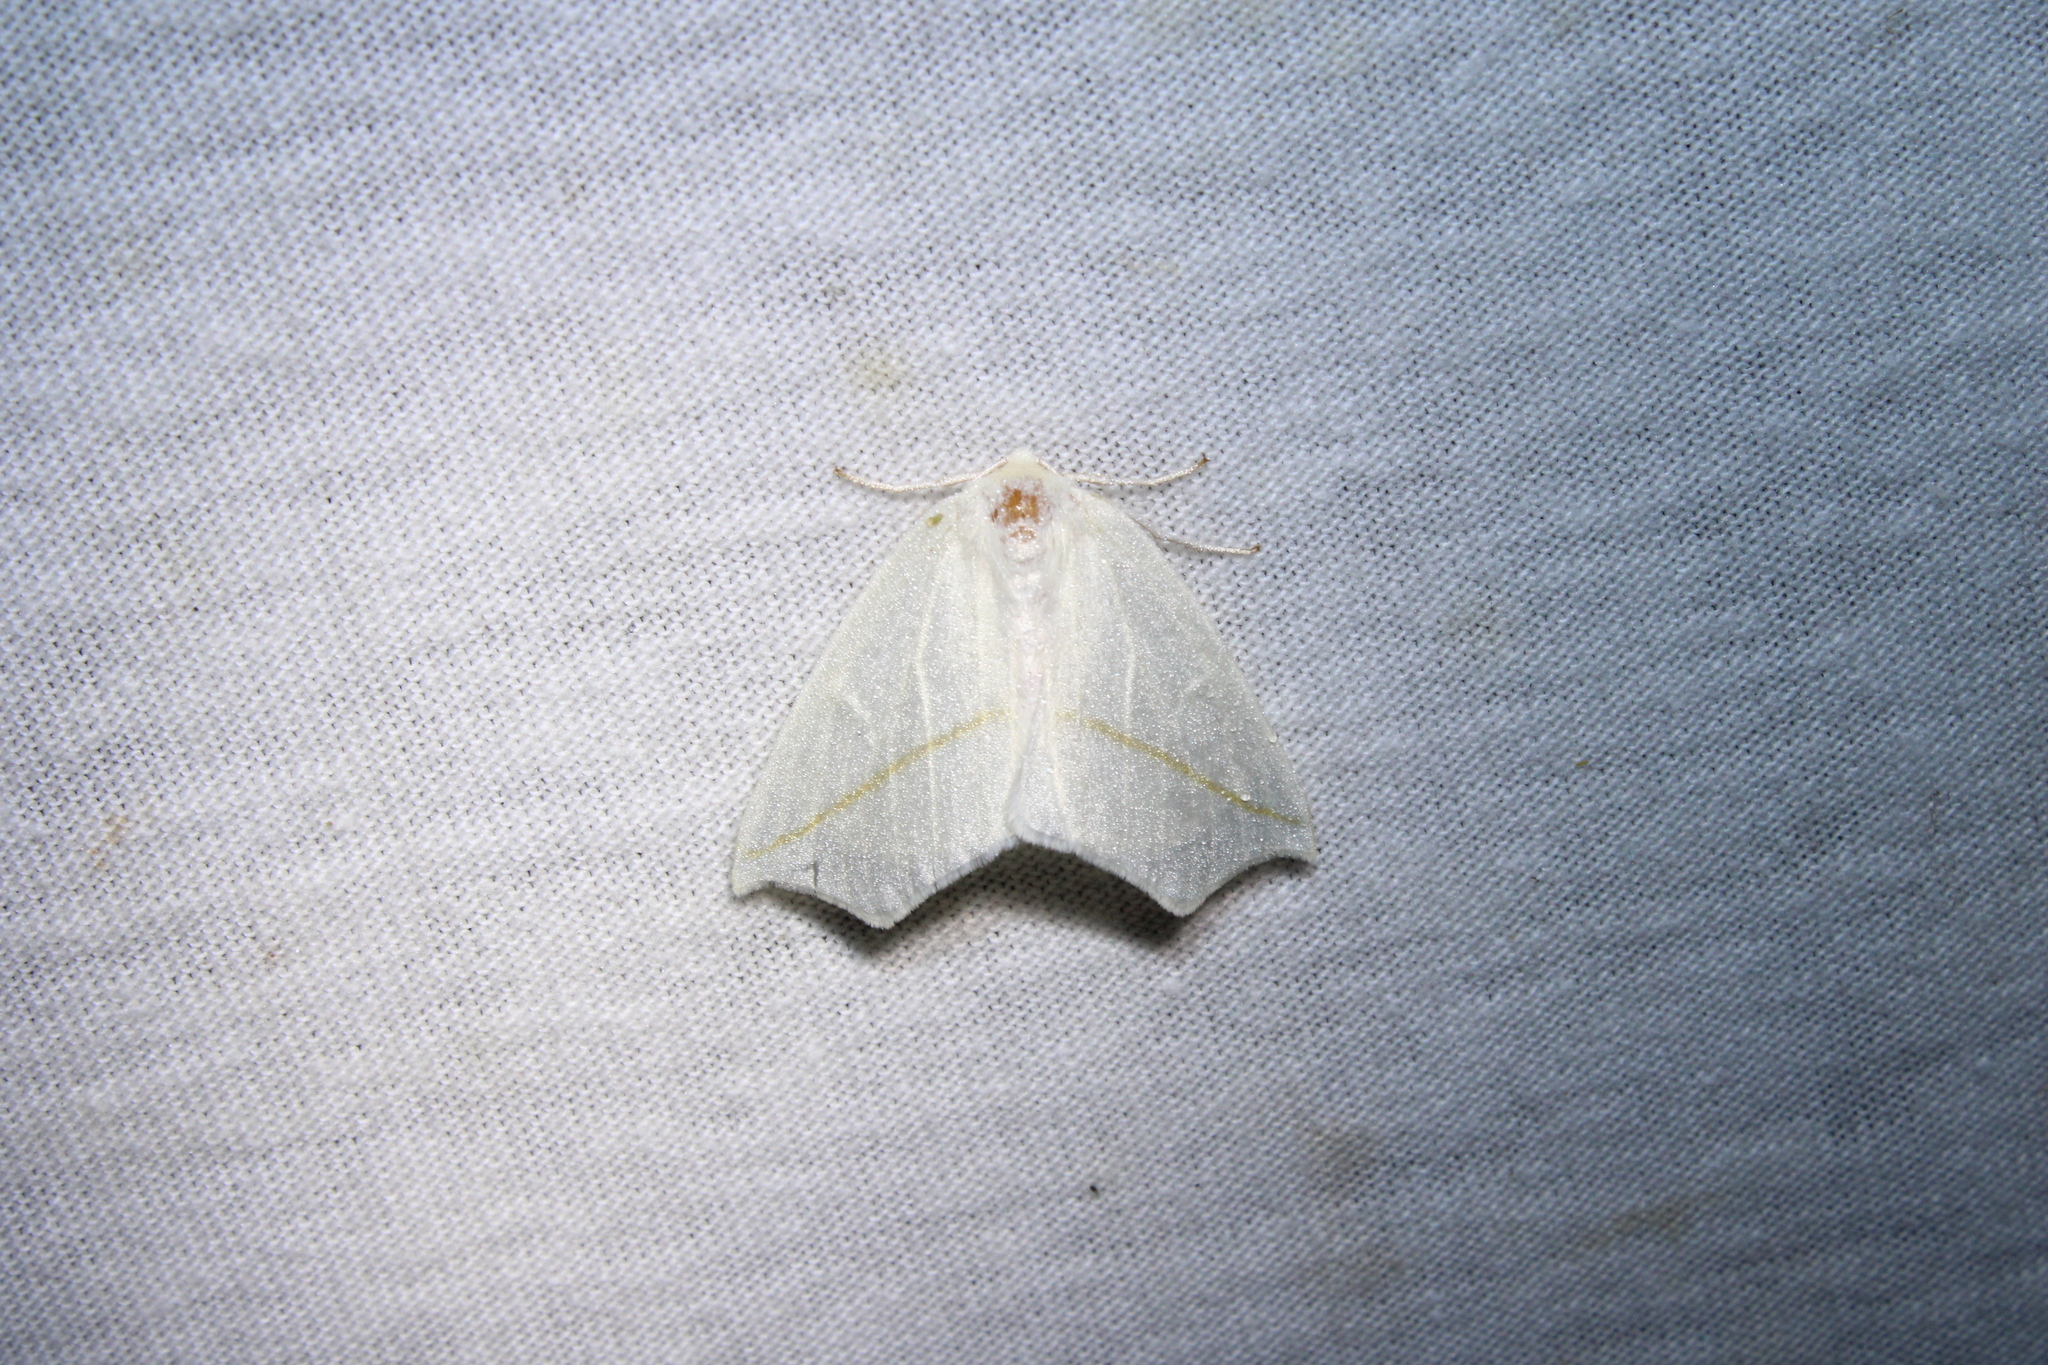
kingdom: Animalia
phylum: Arthropoda
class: Insecta
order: Lepidoptera
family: Geometridae
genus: Tetracis
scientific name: Tetracis cachexiata
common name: White slant-line
